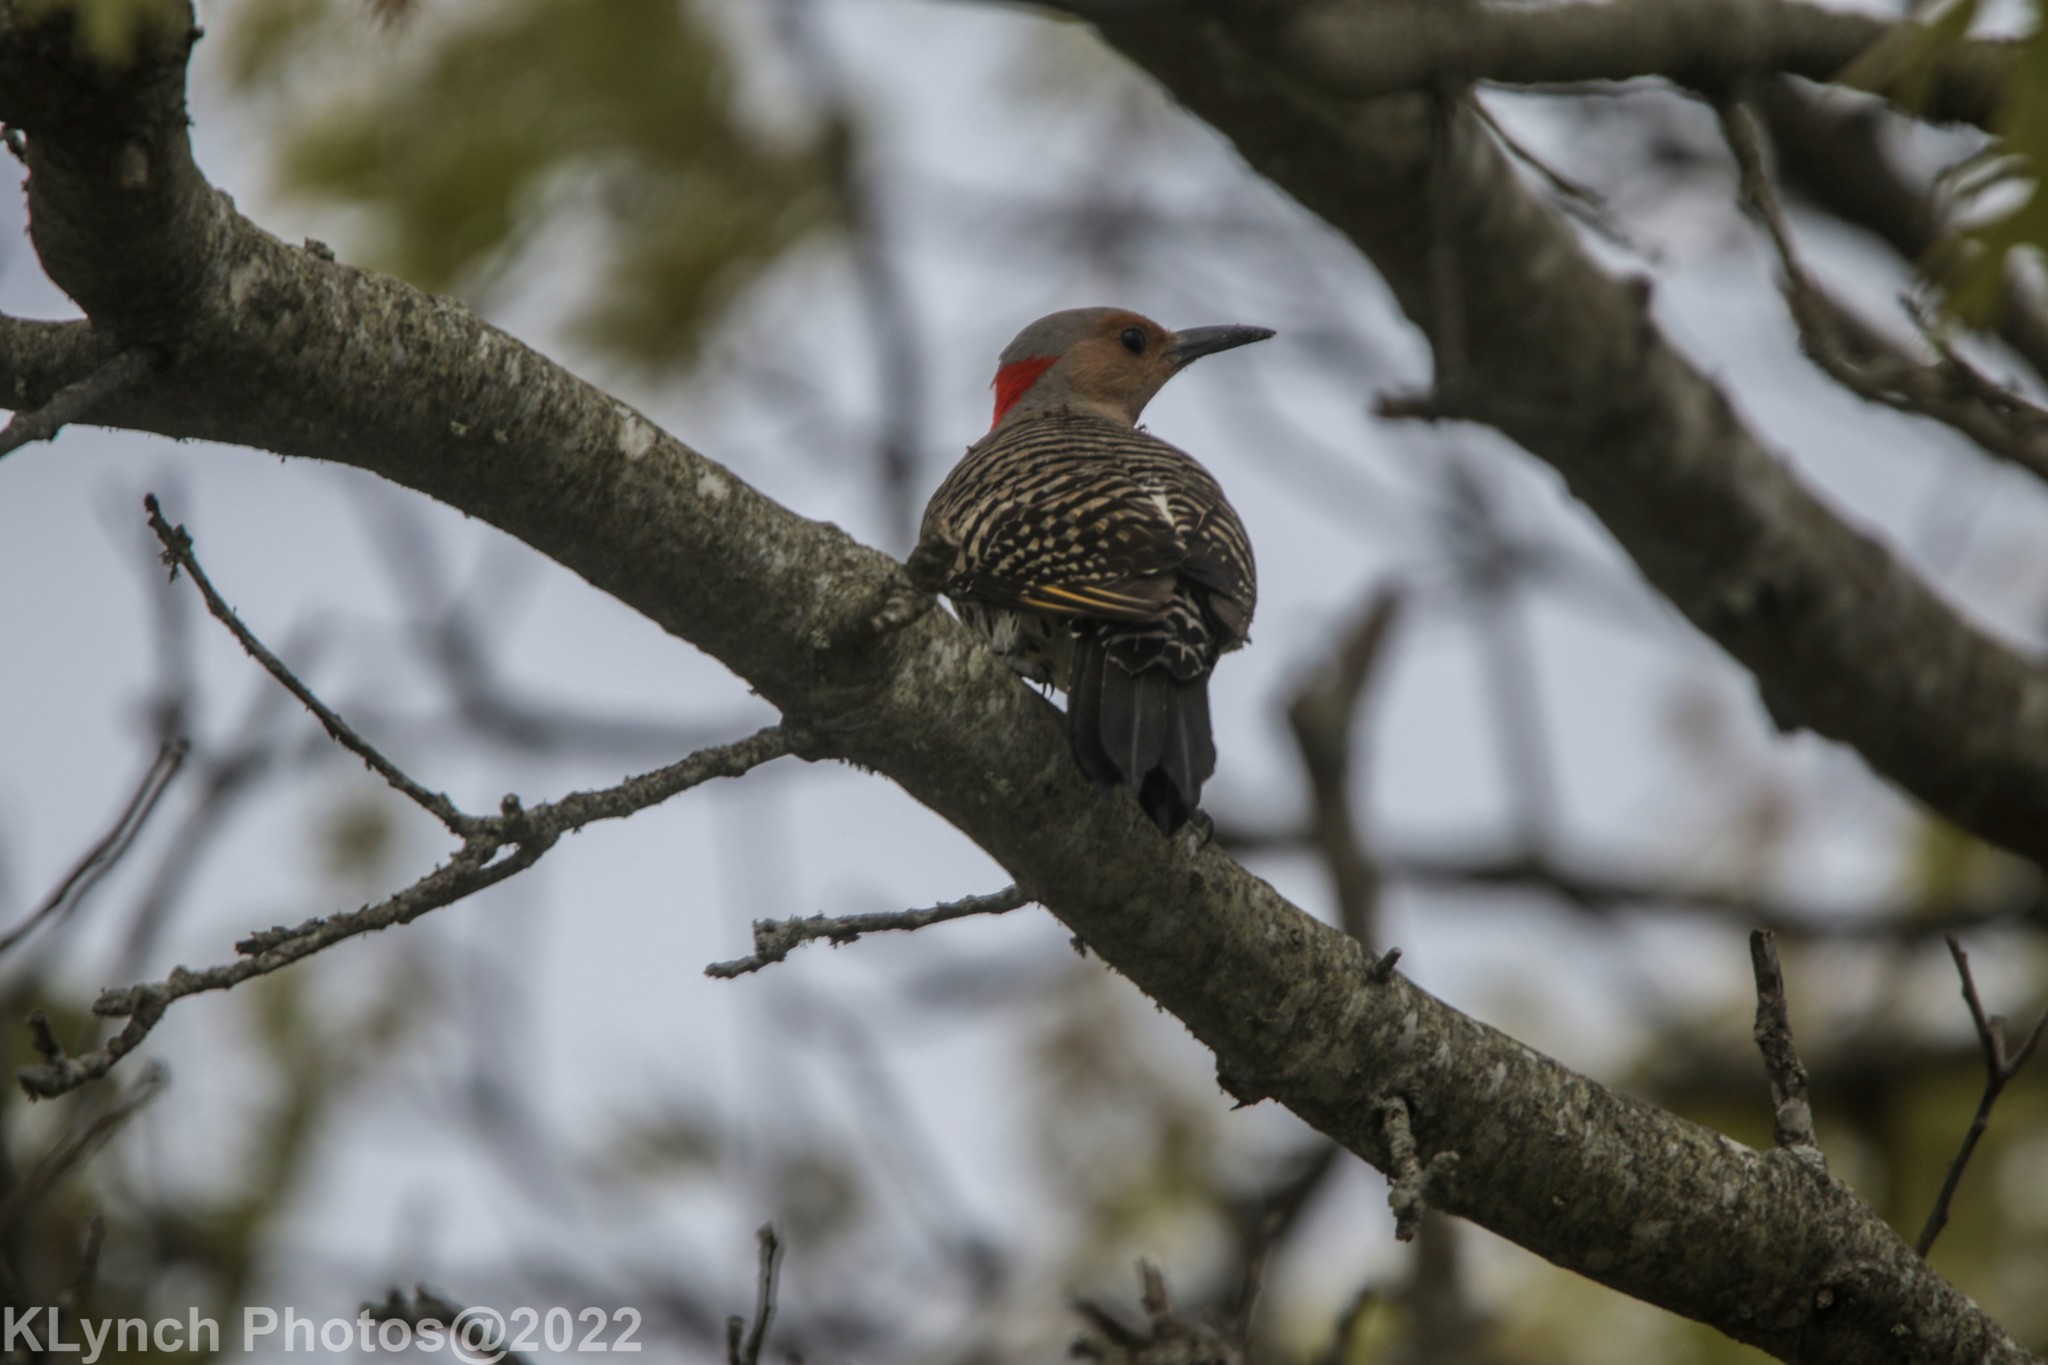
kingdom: Animalia
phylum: Chordata
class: Aves
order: Piciformes
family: Picidae
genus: Colaptes
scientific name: Colaptes auratus
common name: Northern flicker
